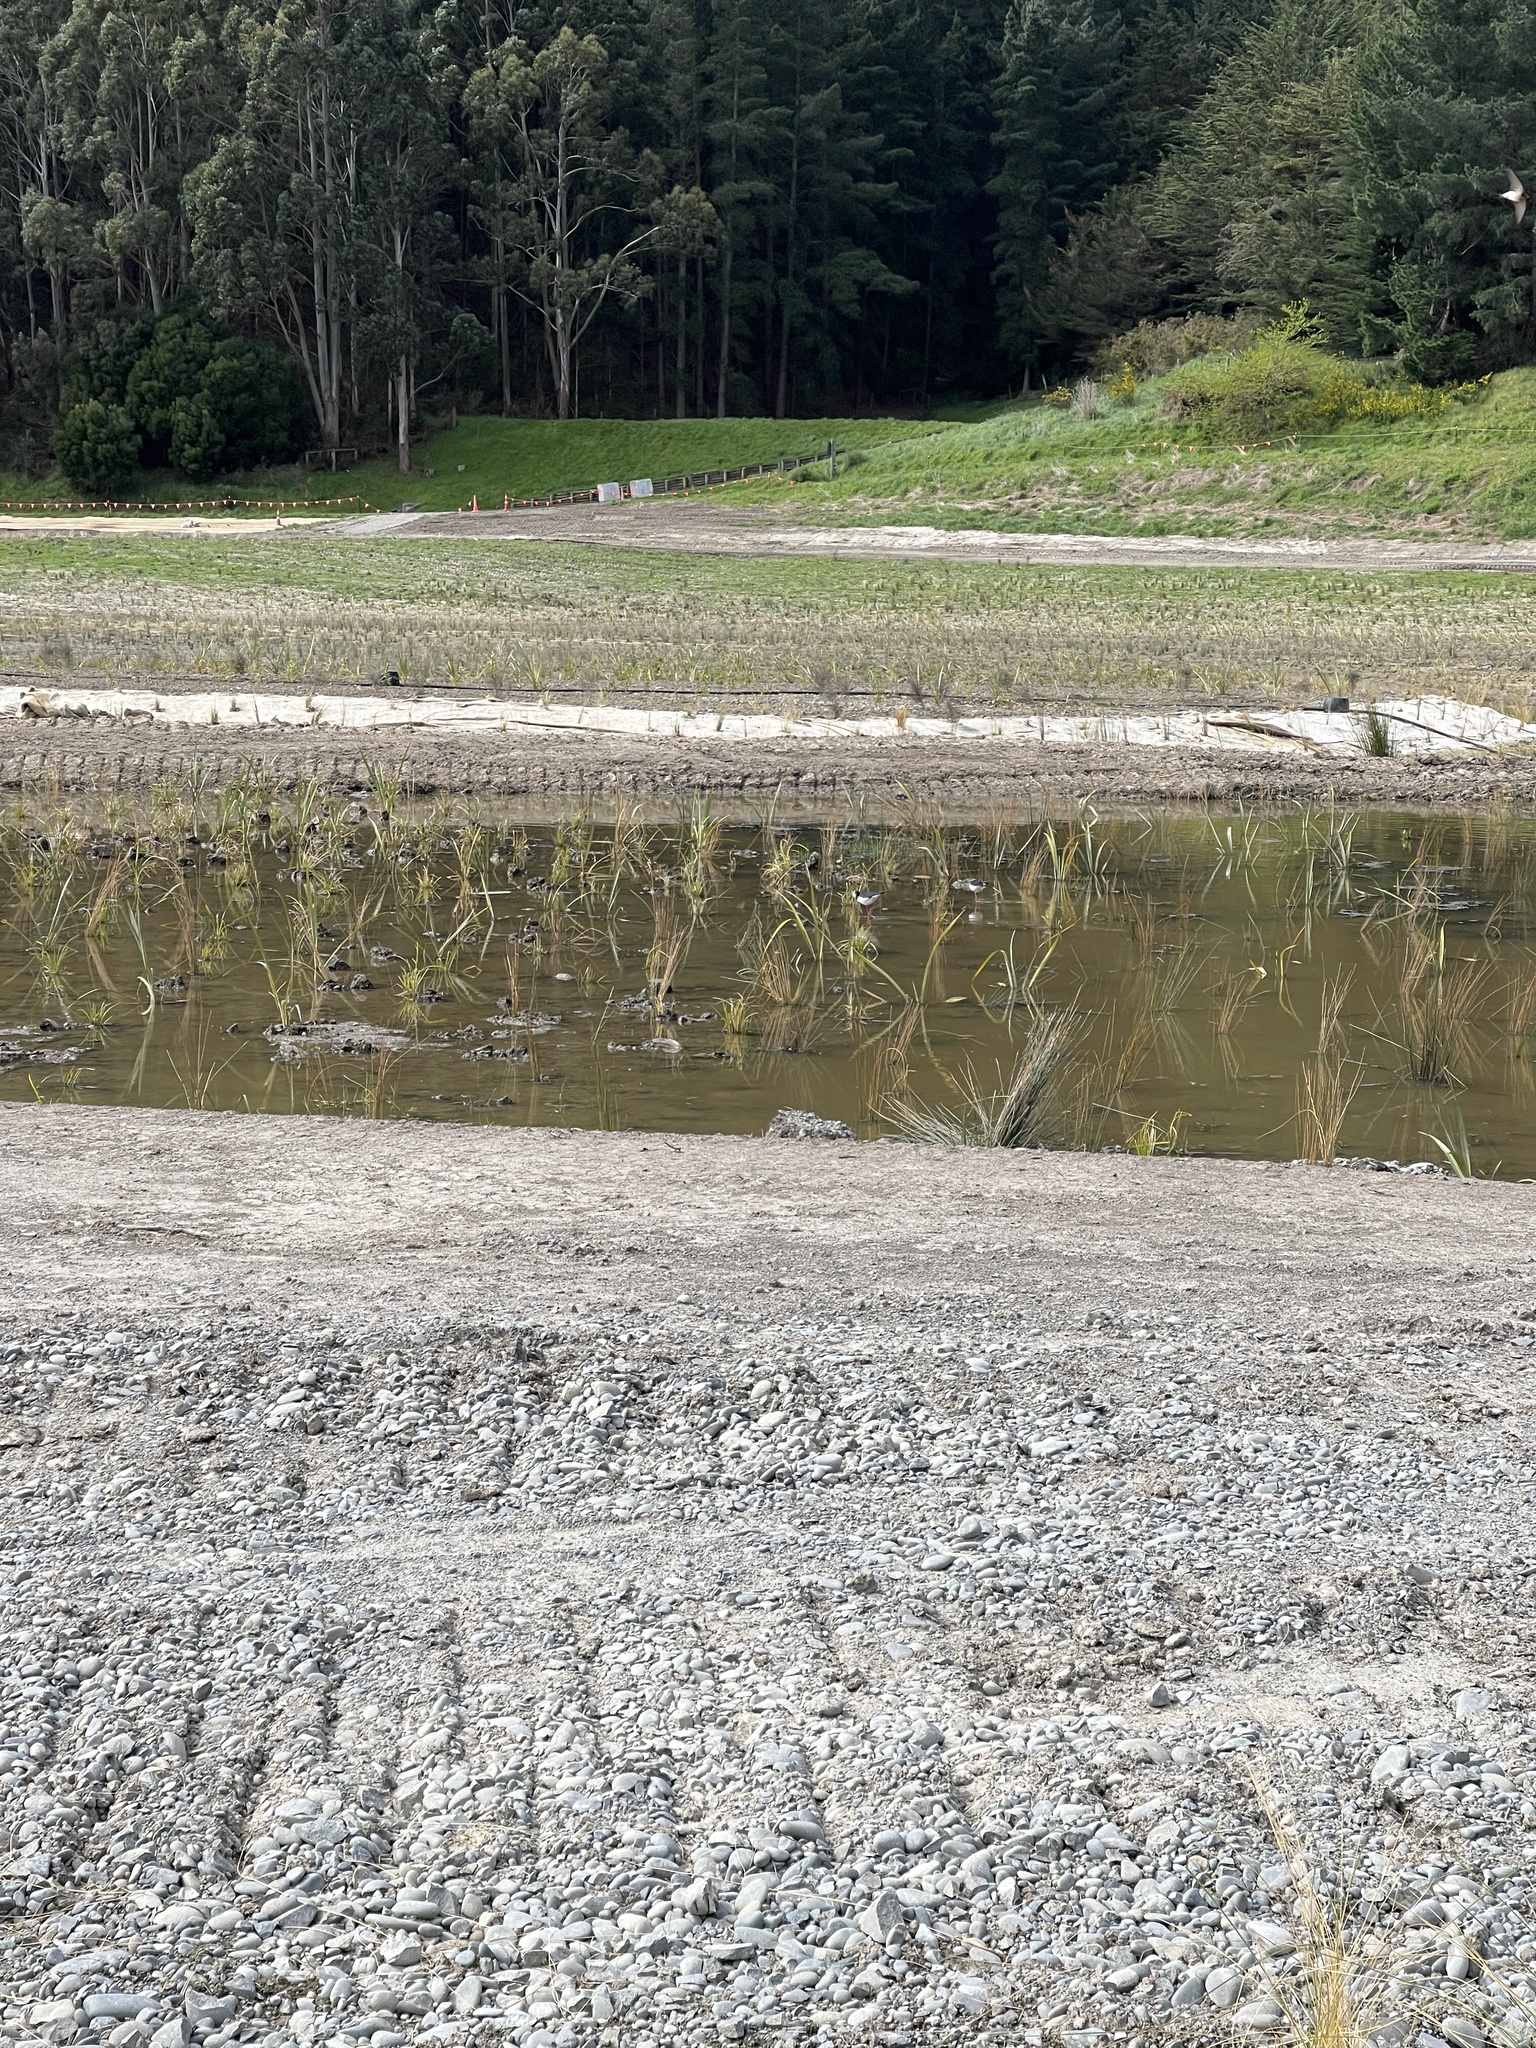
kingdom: Animalia
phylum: Chordata
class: Aves
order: Charadriiformes
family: Recurvirostridae
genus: Himantopus
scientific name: Himantopus leucocephalus
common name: White-headed stilt
